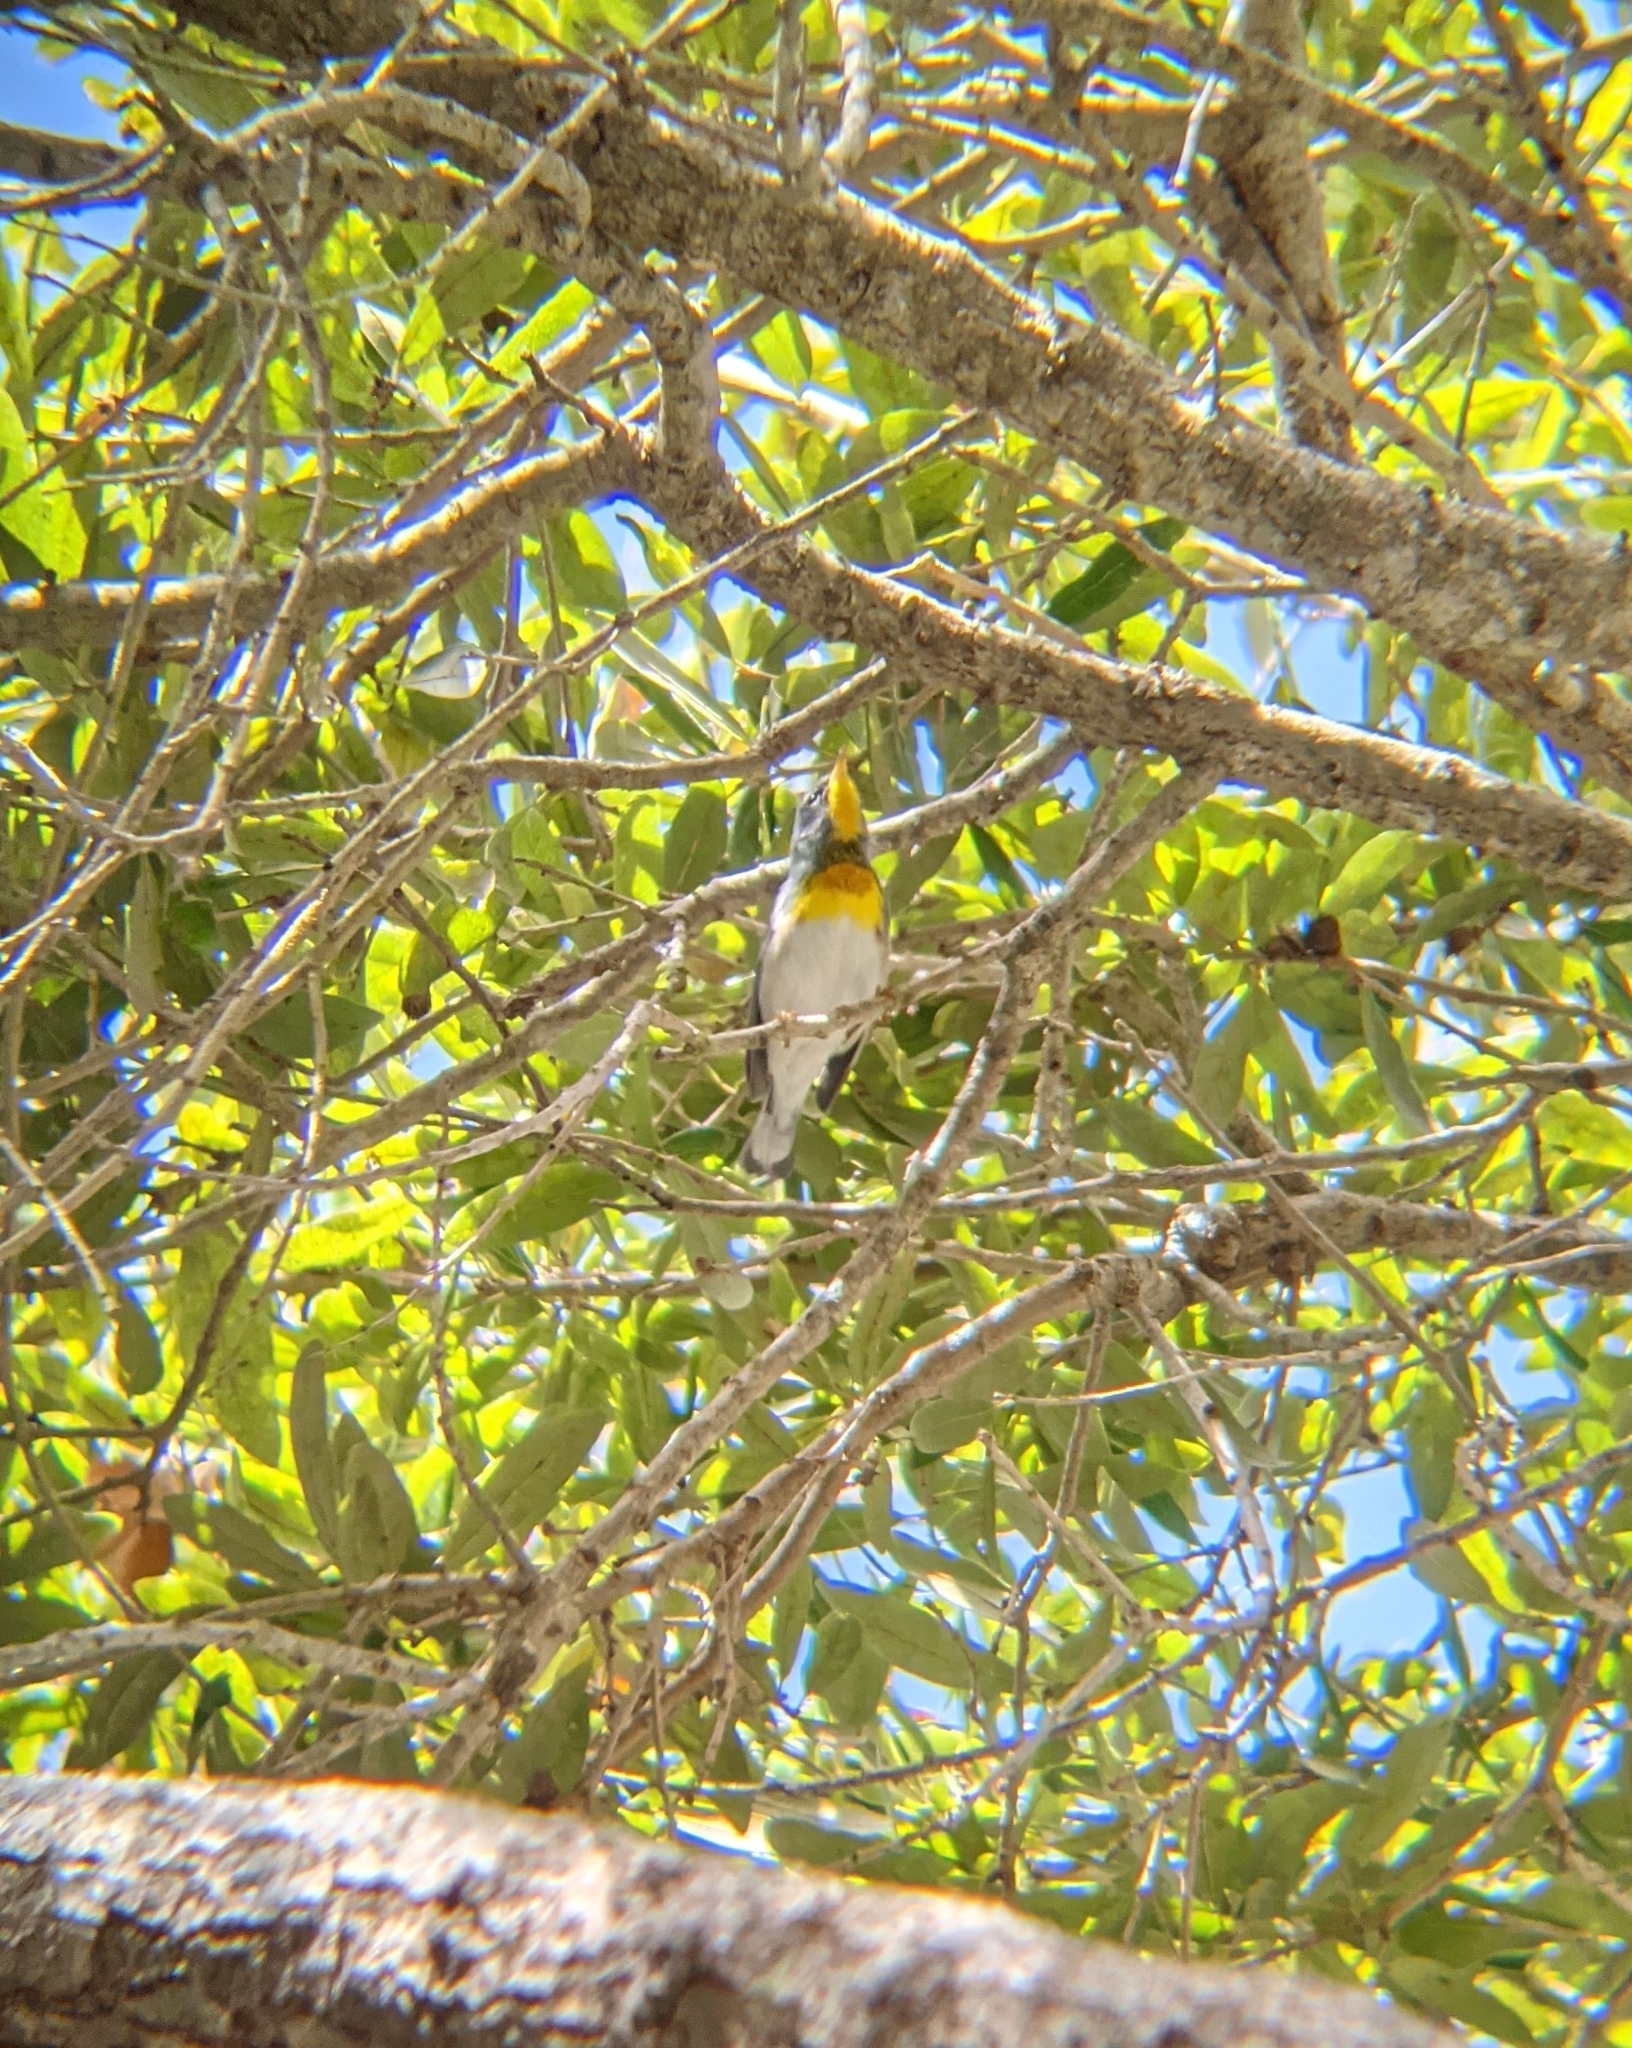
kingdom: Animalia
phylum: Chordata
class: Aves
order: Passeriformes
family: Parulidae
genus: Setophaga
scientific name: Setophaga americana
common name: Northern parula
